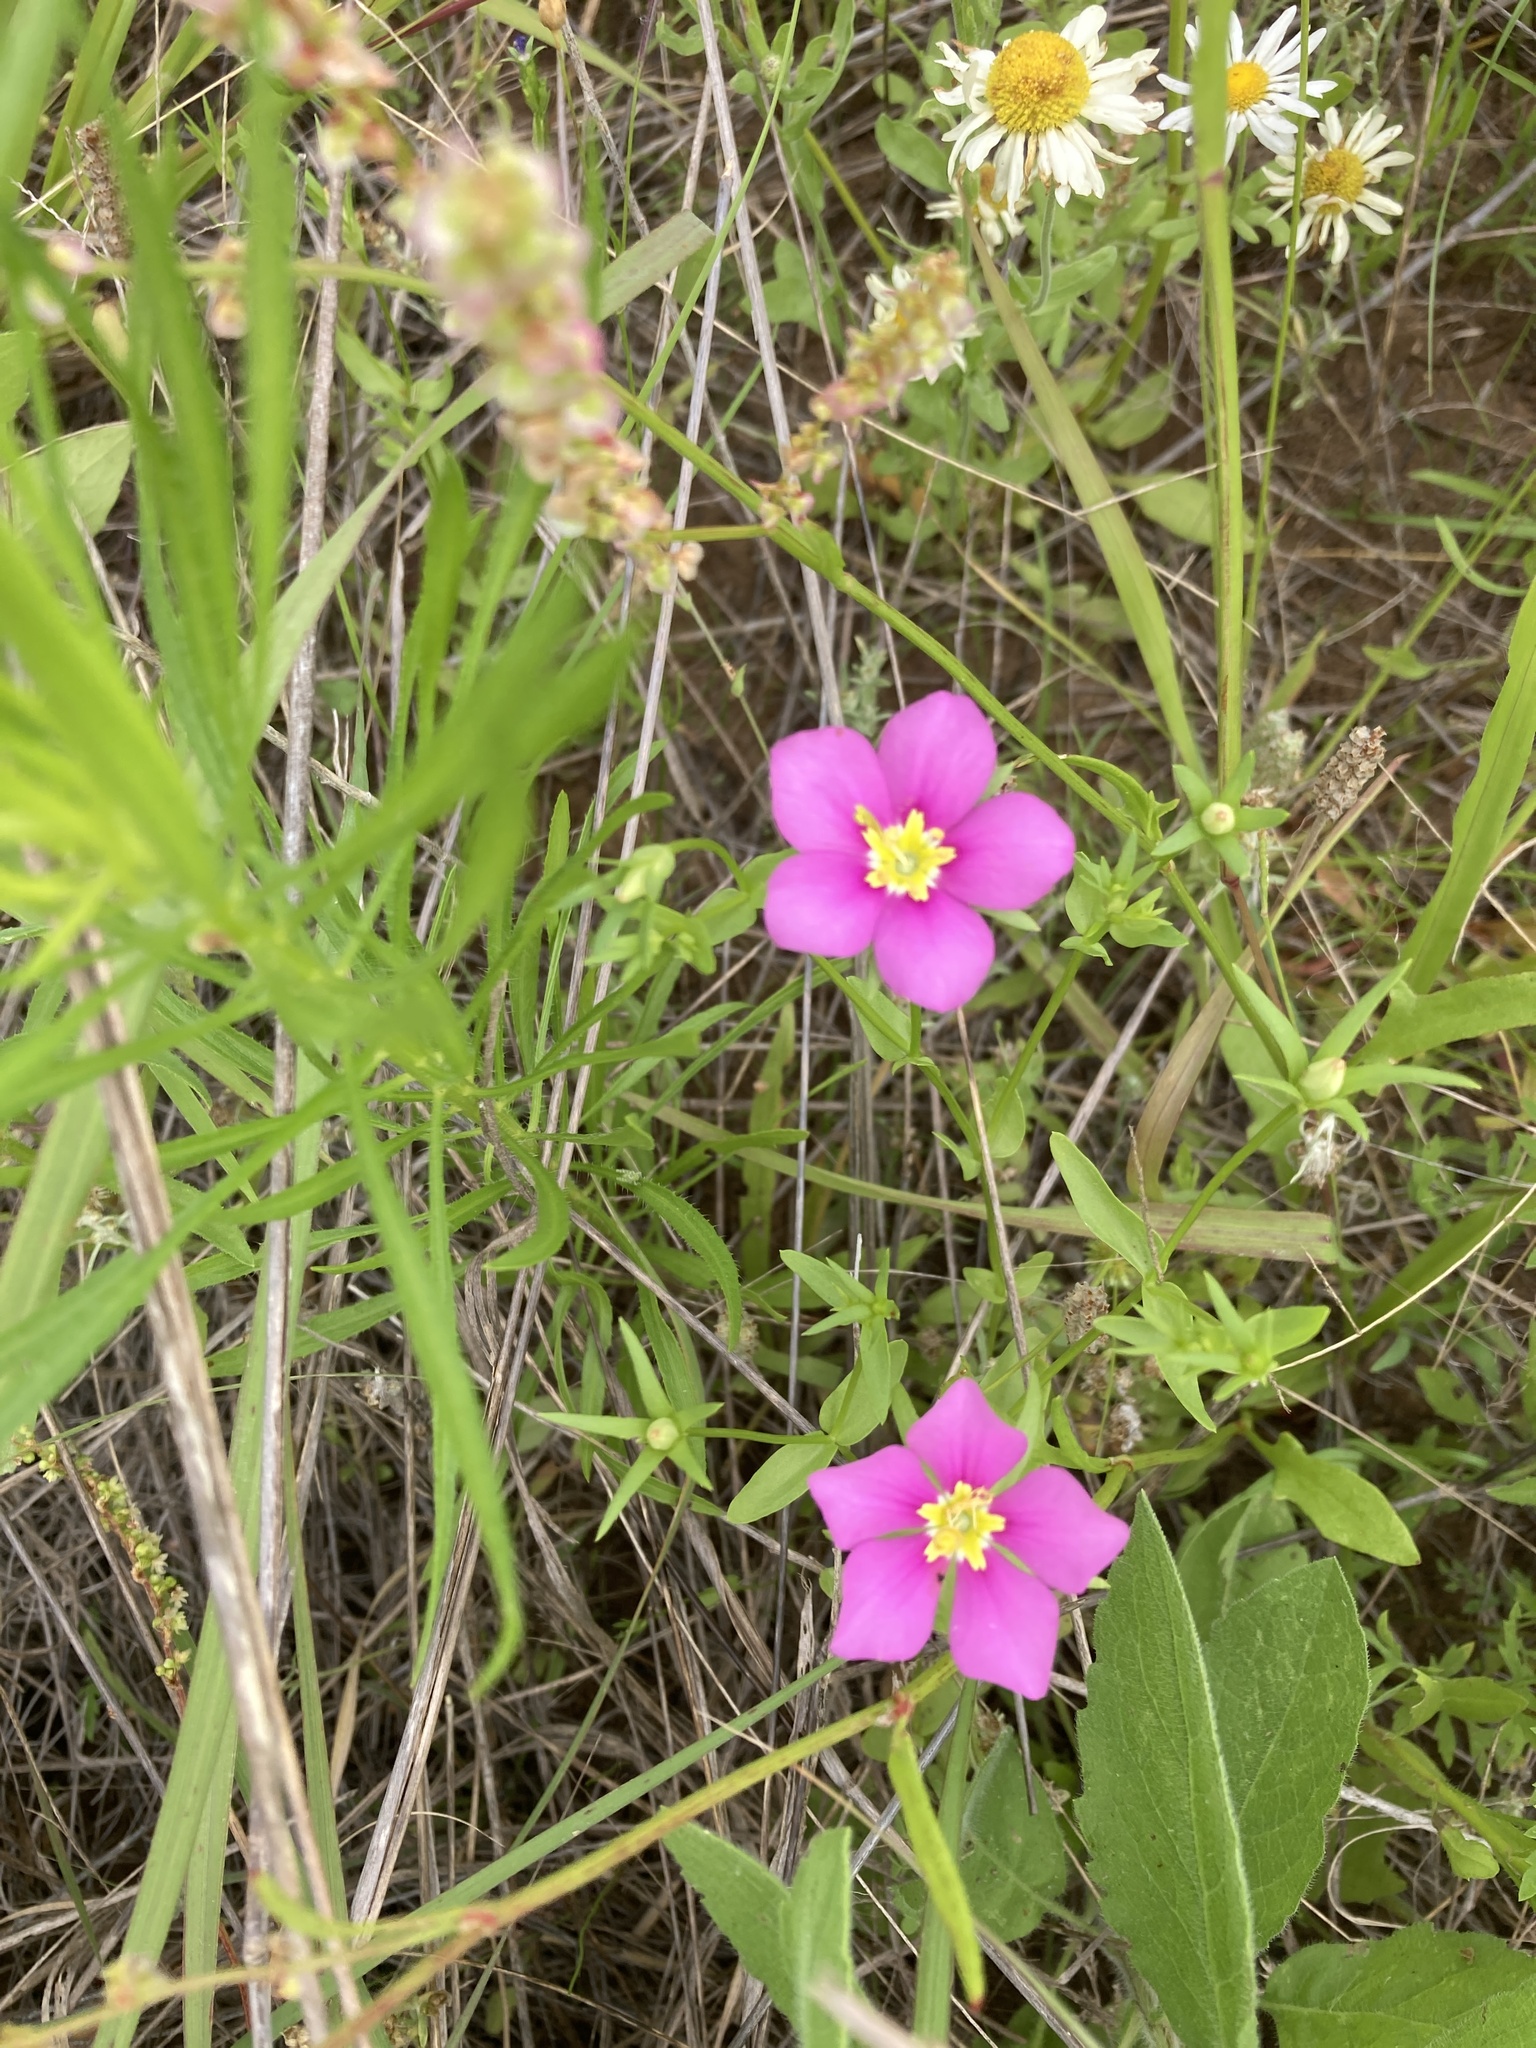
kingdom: Plantae
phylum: Tracheophyta
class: Magnoliopsida
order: Gentianales
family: Gentianaceae
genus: Sabatia
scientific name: Sabatia campestris
